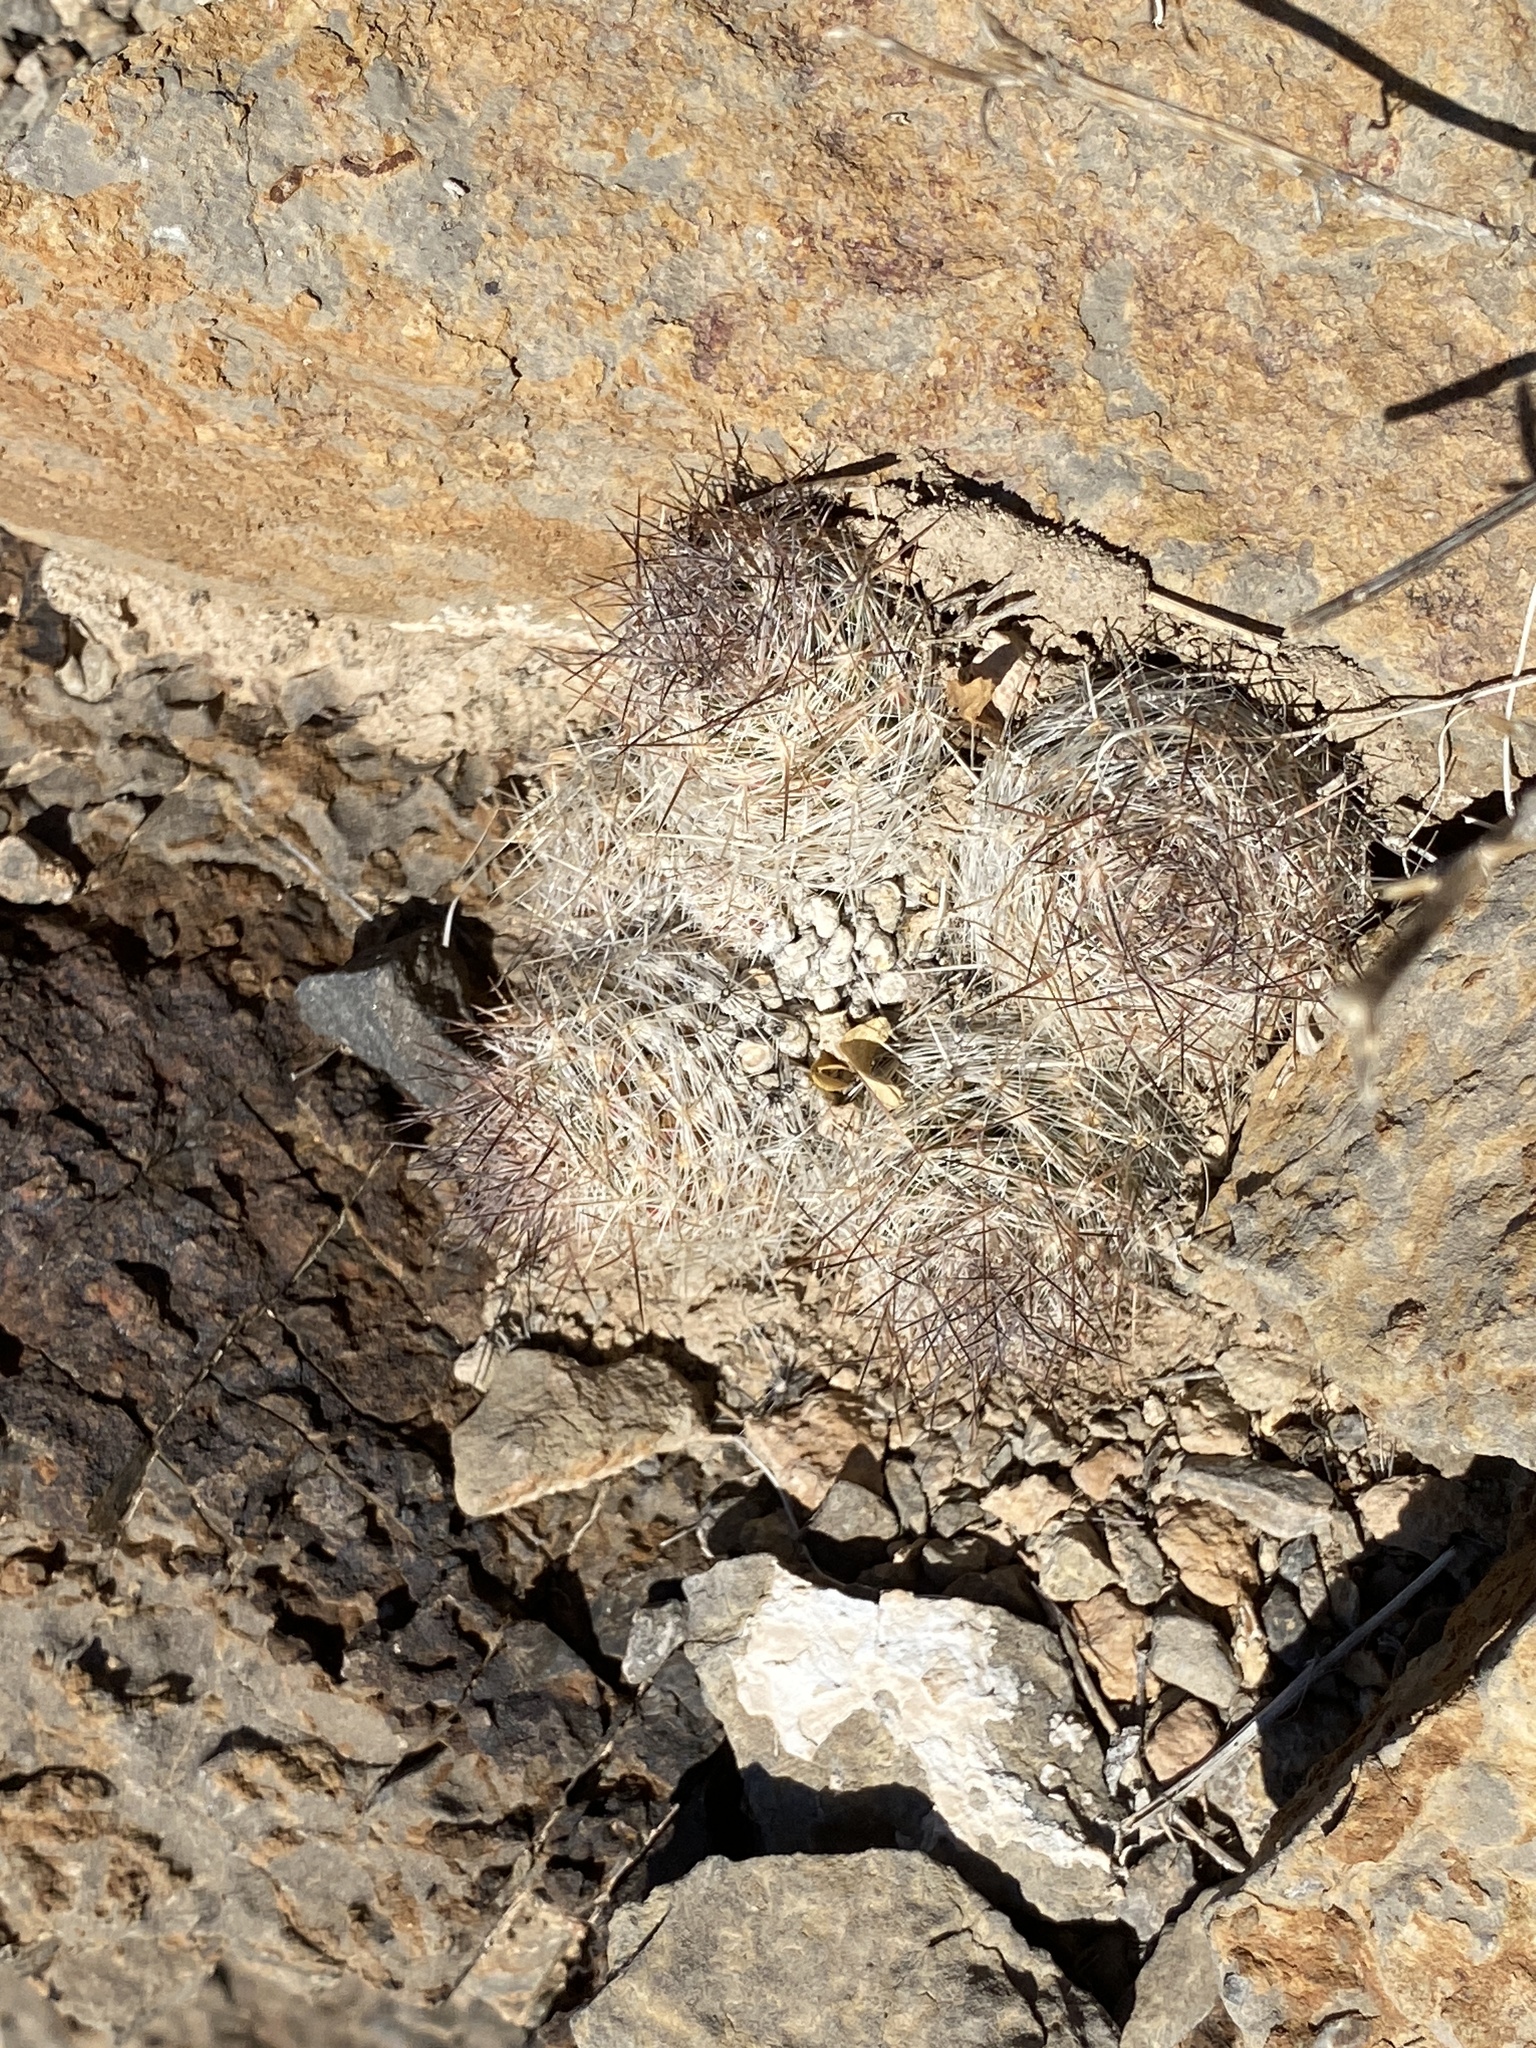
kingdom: Plantae
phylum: Tracheophyta
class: Magnoliopsida
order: Caryophyllales
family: Cactaceae
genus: Pelecyphora
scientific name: Pelecyphora tuberculosa
